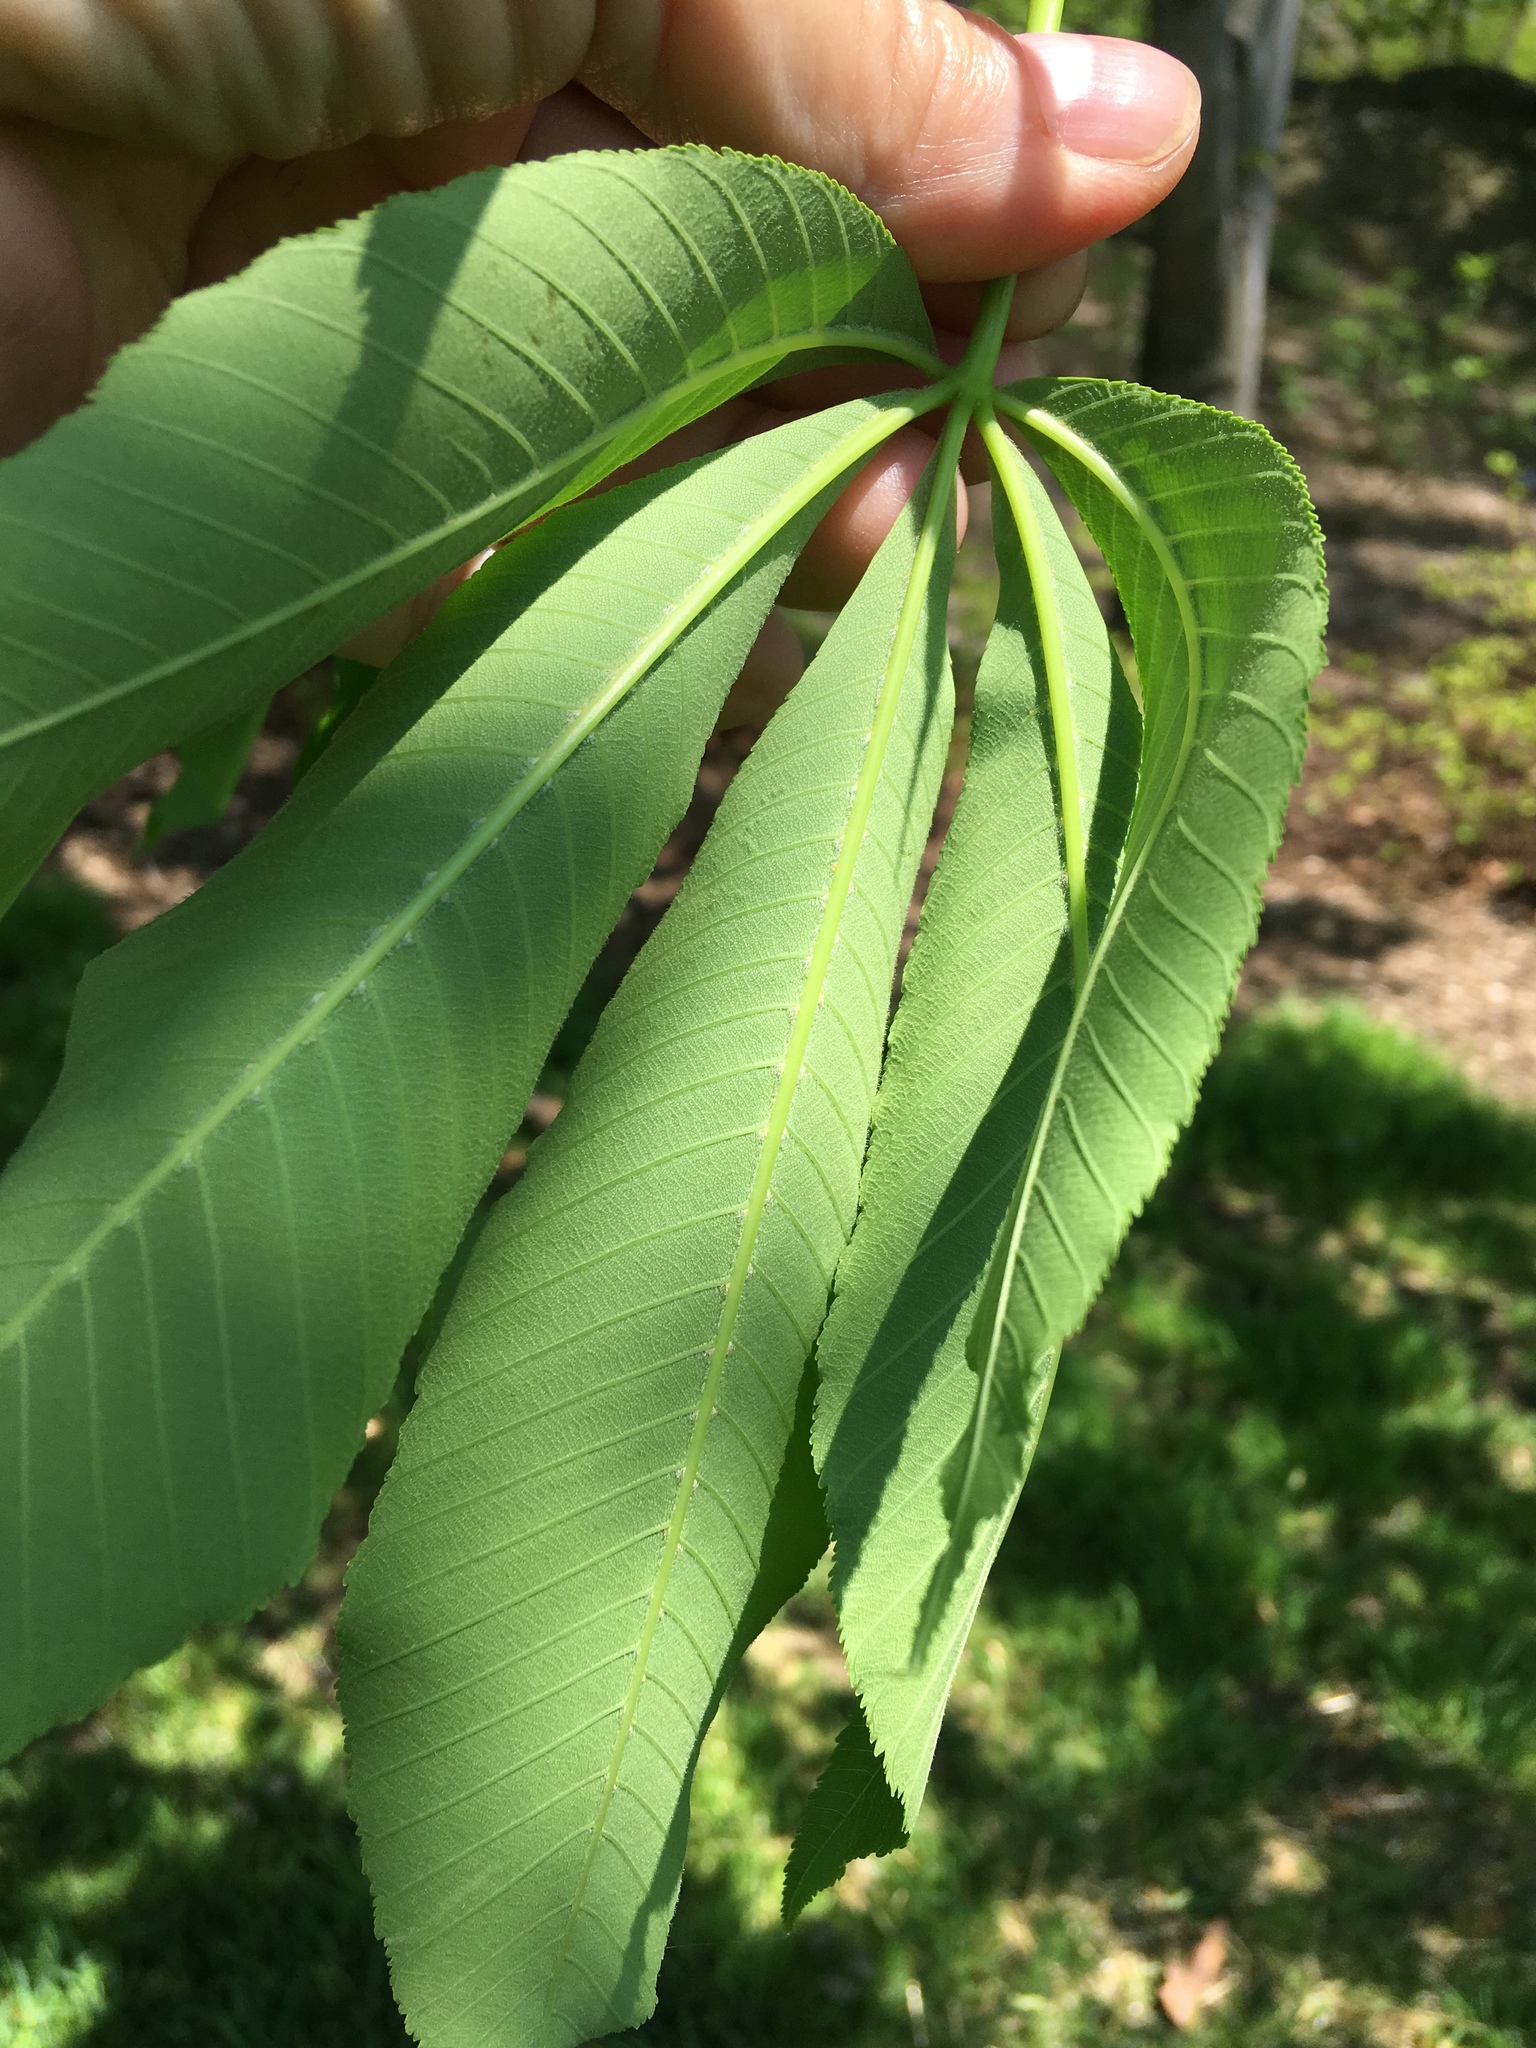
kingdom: Plantae
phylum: Tracheophyta
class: Magnoliopsida
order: Sapindales
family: Sapindaceae
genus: Aesculus
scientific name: Aesculus flava
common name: Yellow buckeye
